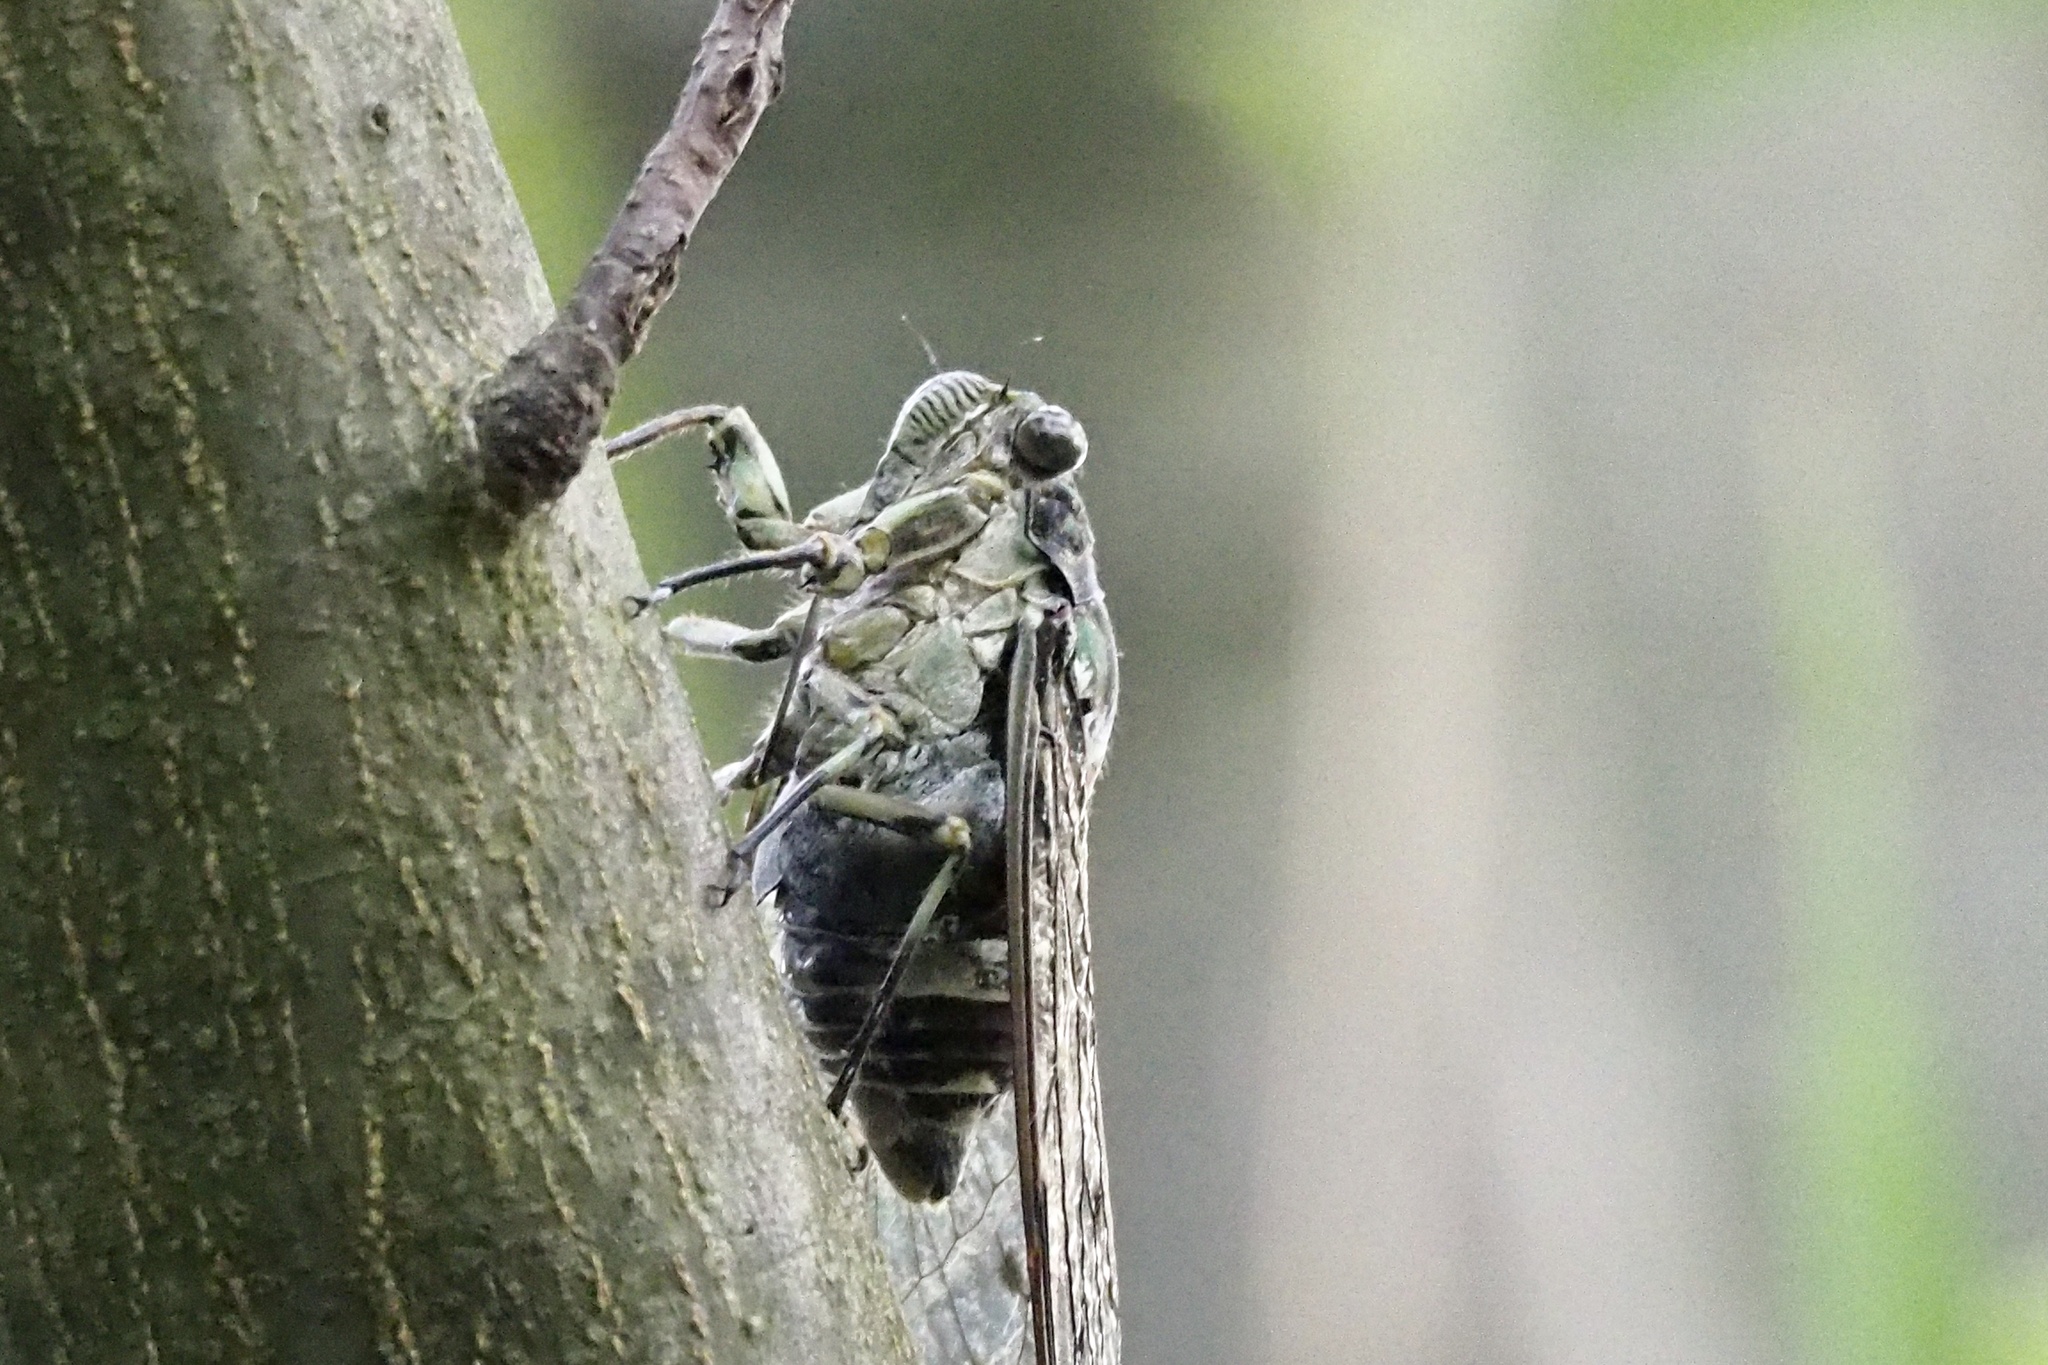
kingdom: Animalia
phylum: Arthropoda
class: Insecta
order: Hemiptera
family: Cicadidae
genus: Hyalessa
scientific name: Hyalessa maculaticollis
